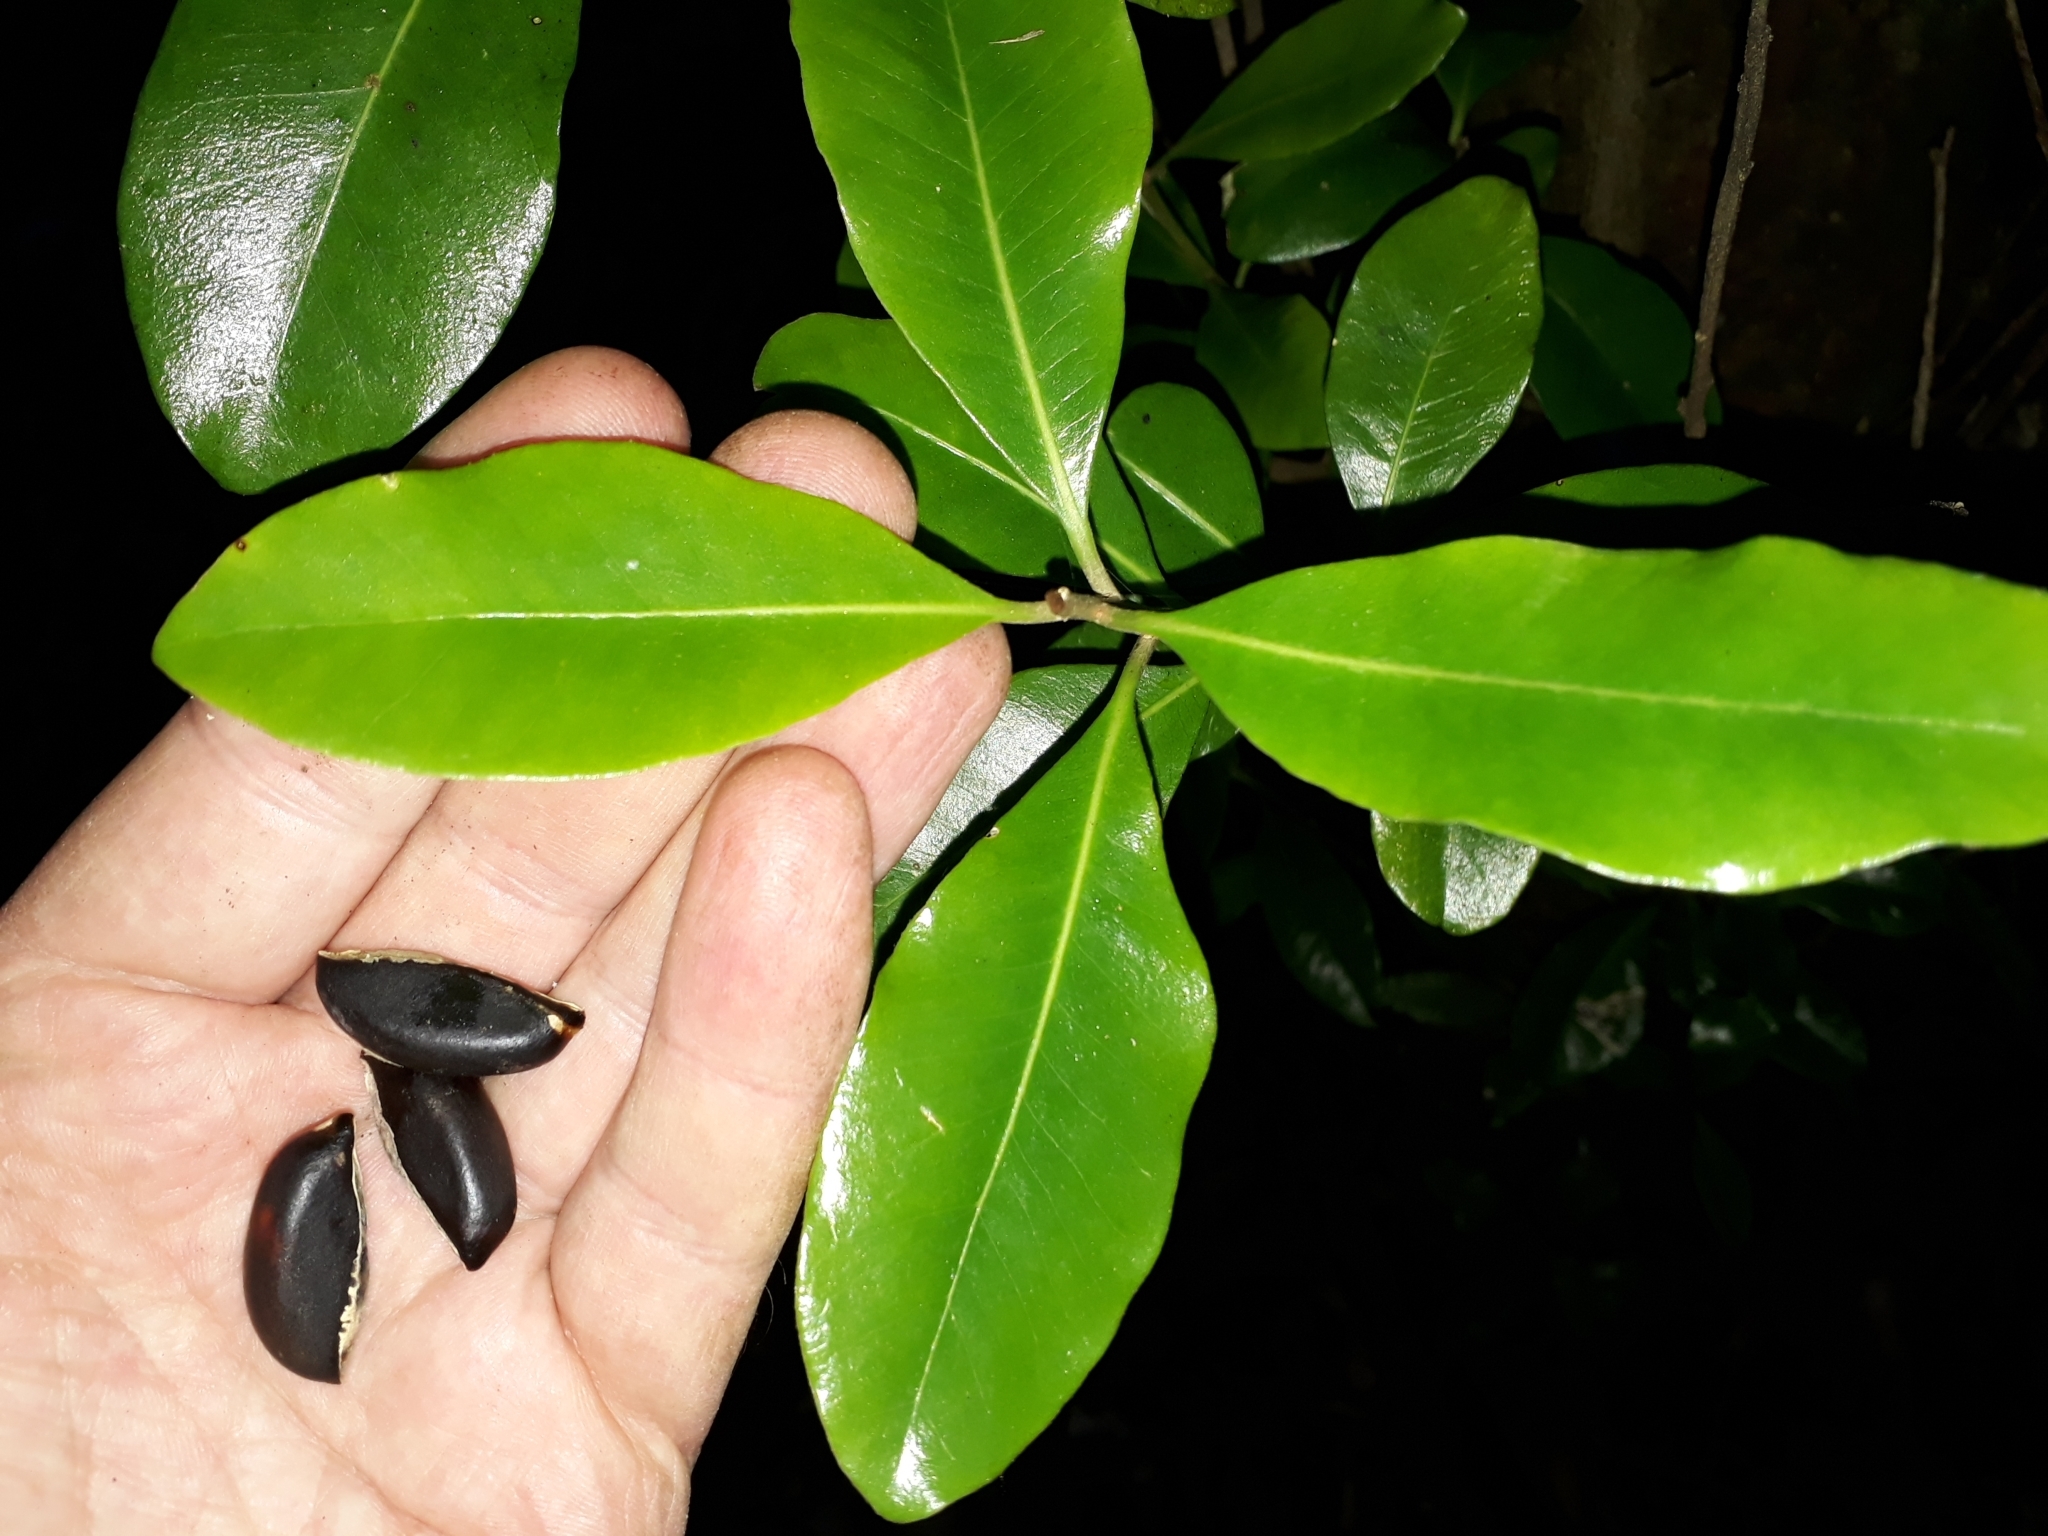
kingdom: Plantae
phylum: Tracheophyta
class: Magnoliopsida
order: Ericales
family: Sapotaceae
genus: Planchonella
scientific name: Planchonella costata
